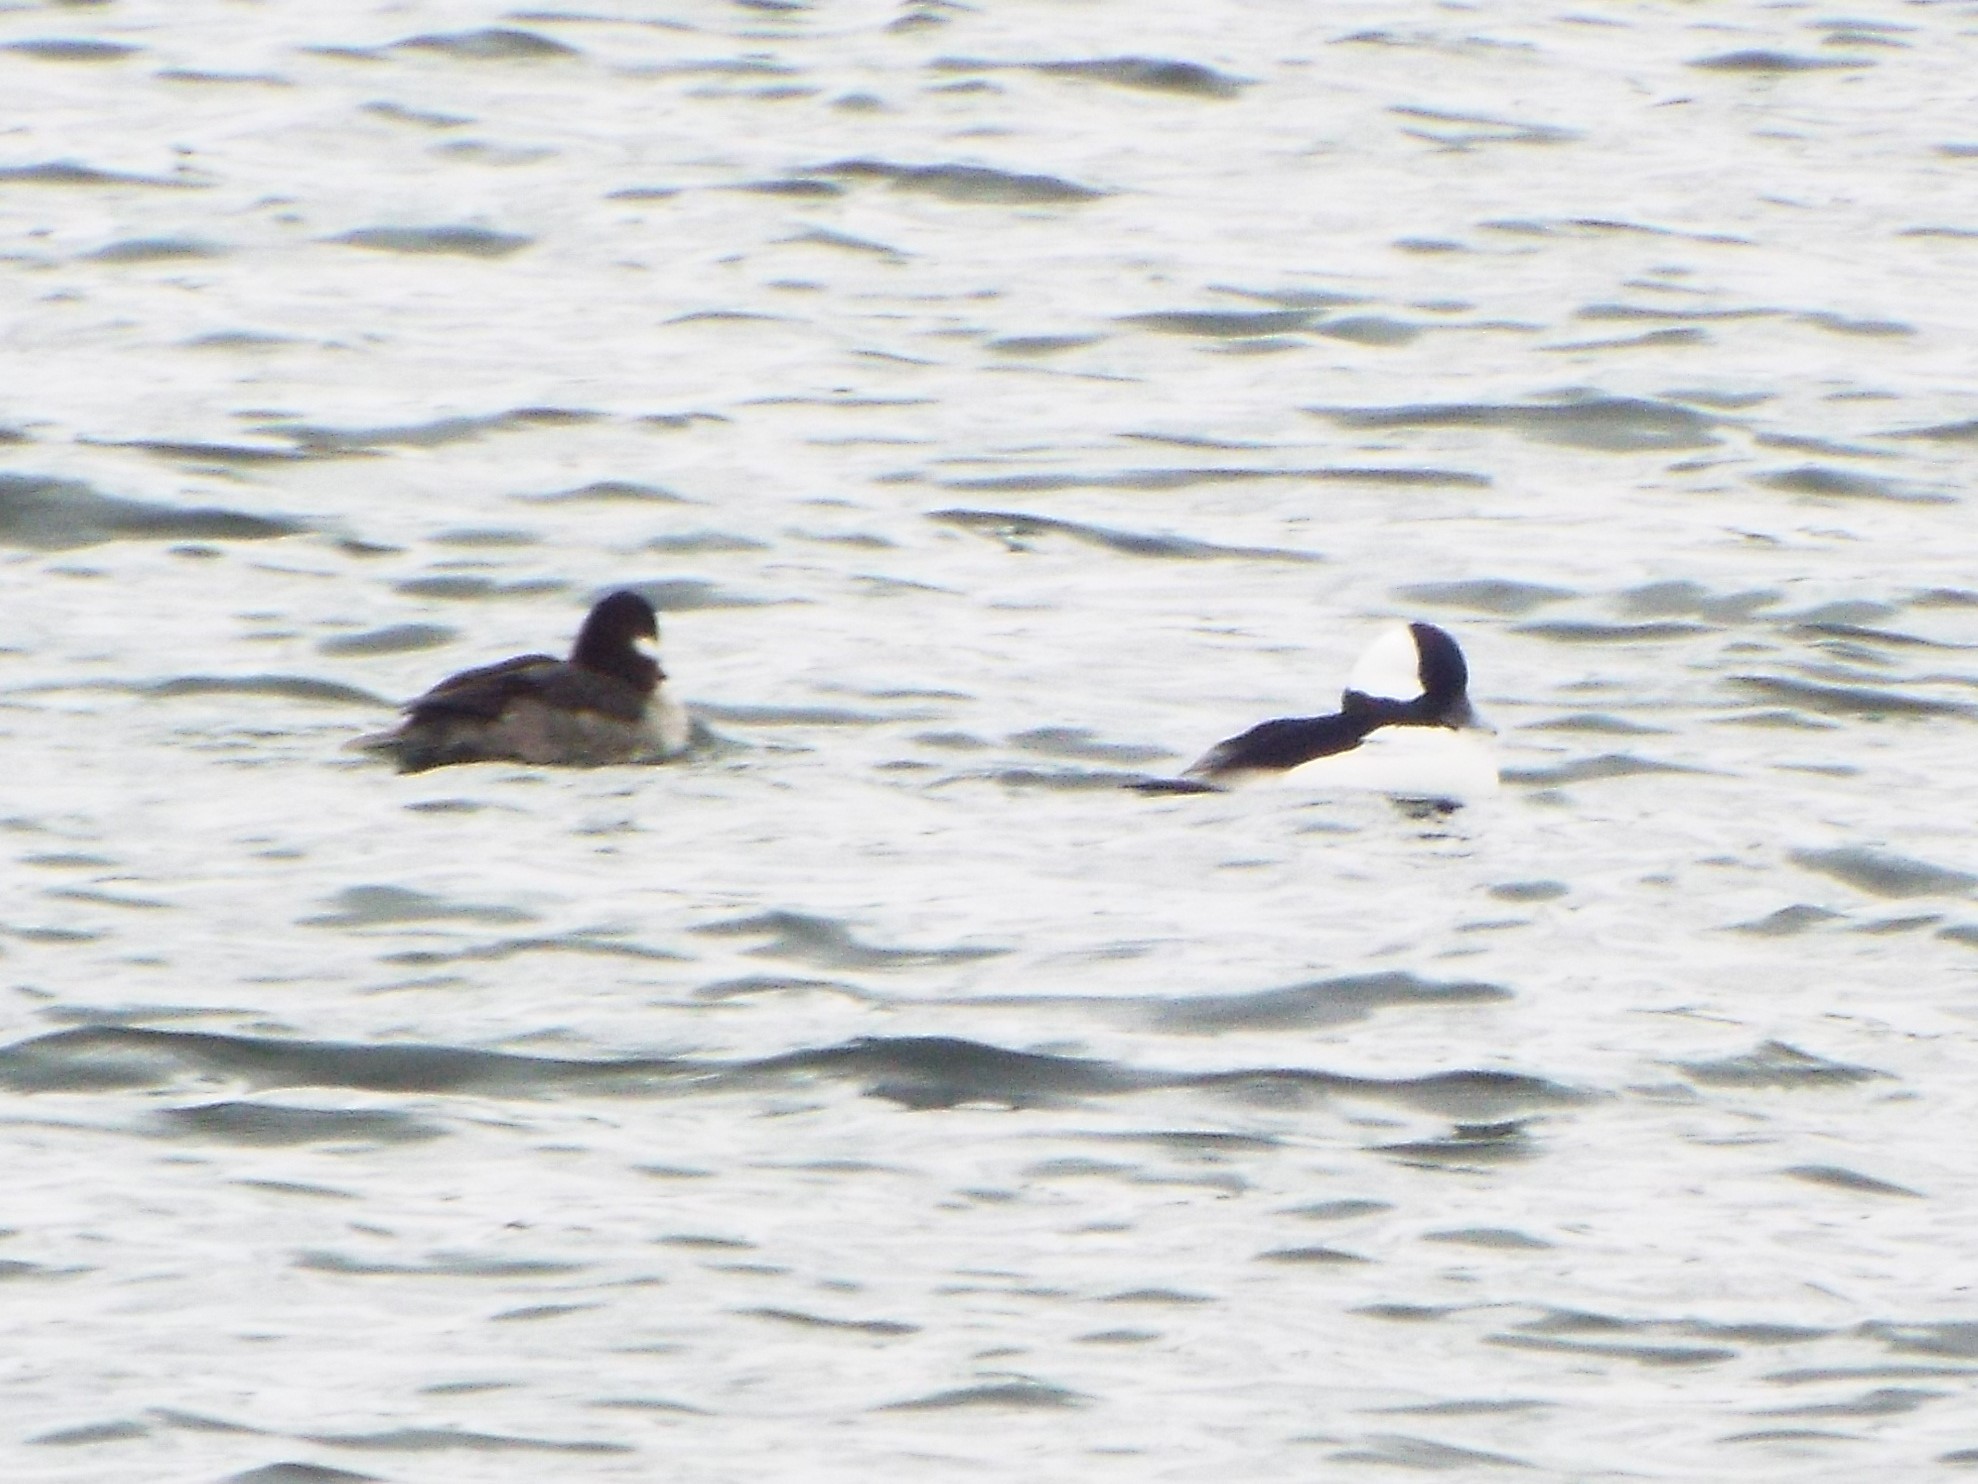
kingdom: Animalia
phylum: Chordata
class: Aves
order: Anseriformes
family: Anatidae
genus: Bucephala
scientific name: Bucephala albeola
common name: Bufflehead
